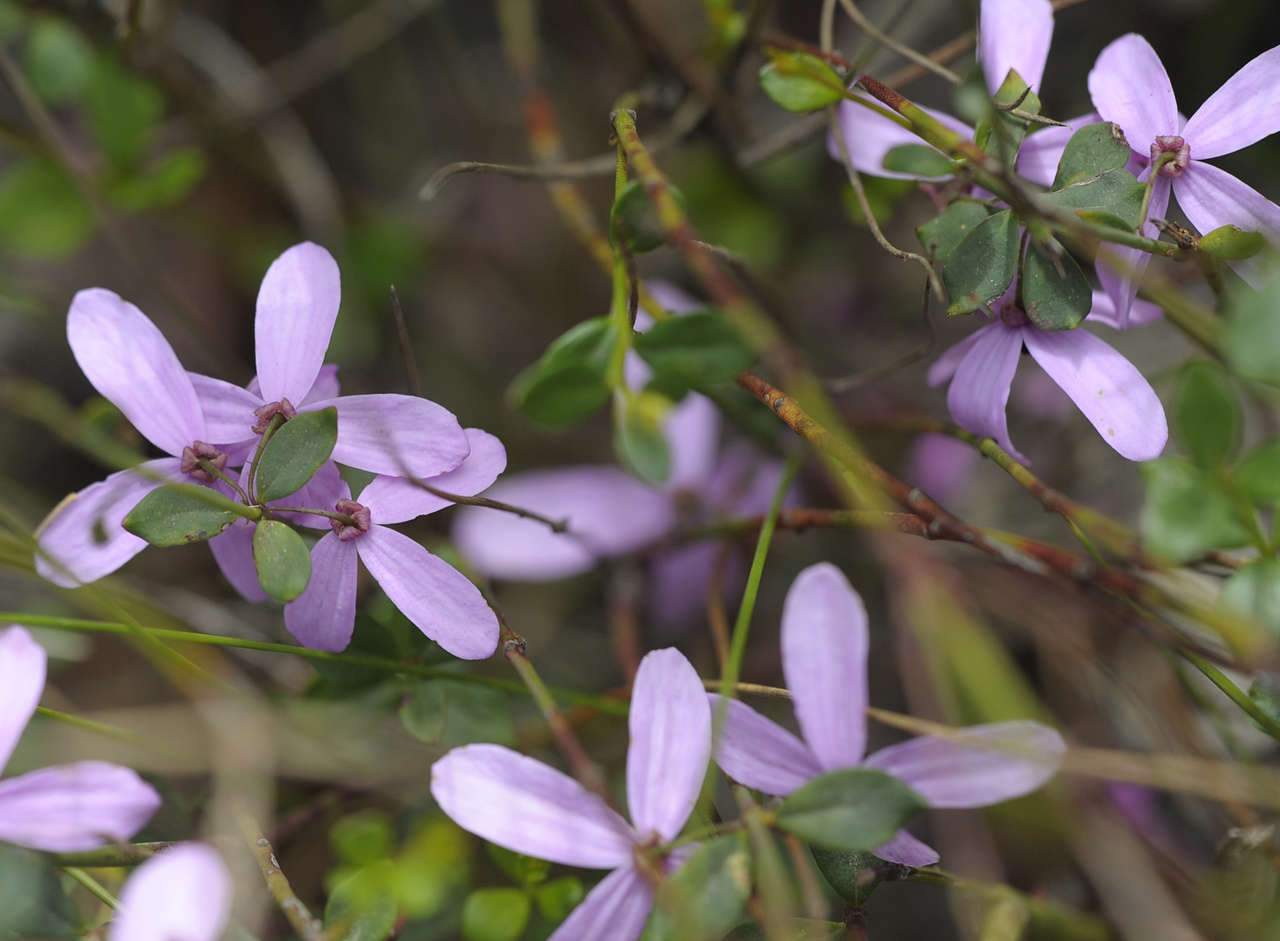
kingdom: Plantae
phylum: Tracheophyta
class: Magnoliopsida
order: Oxalidales
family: Elaeocarpaceae
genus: Tetratheca
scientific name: Tetratheca ciliata
